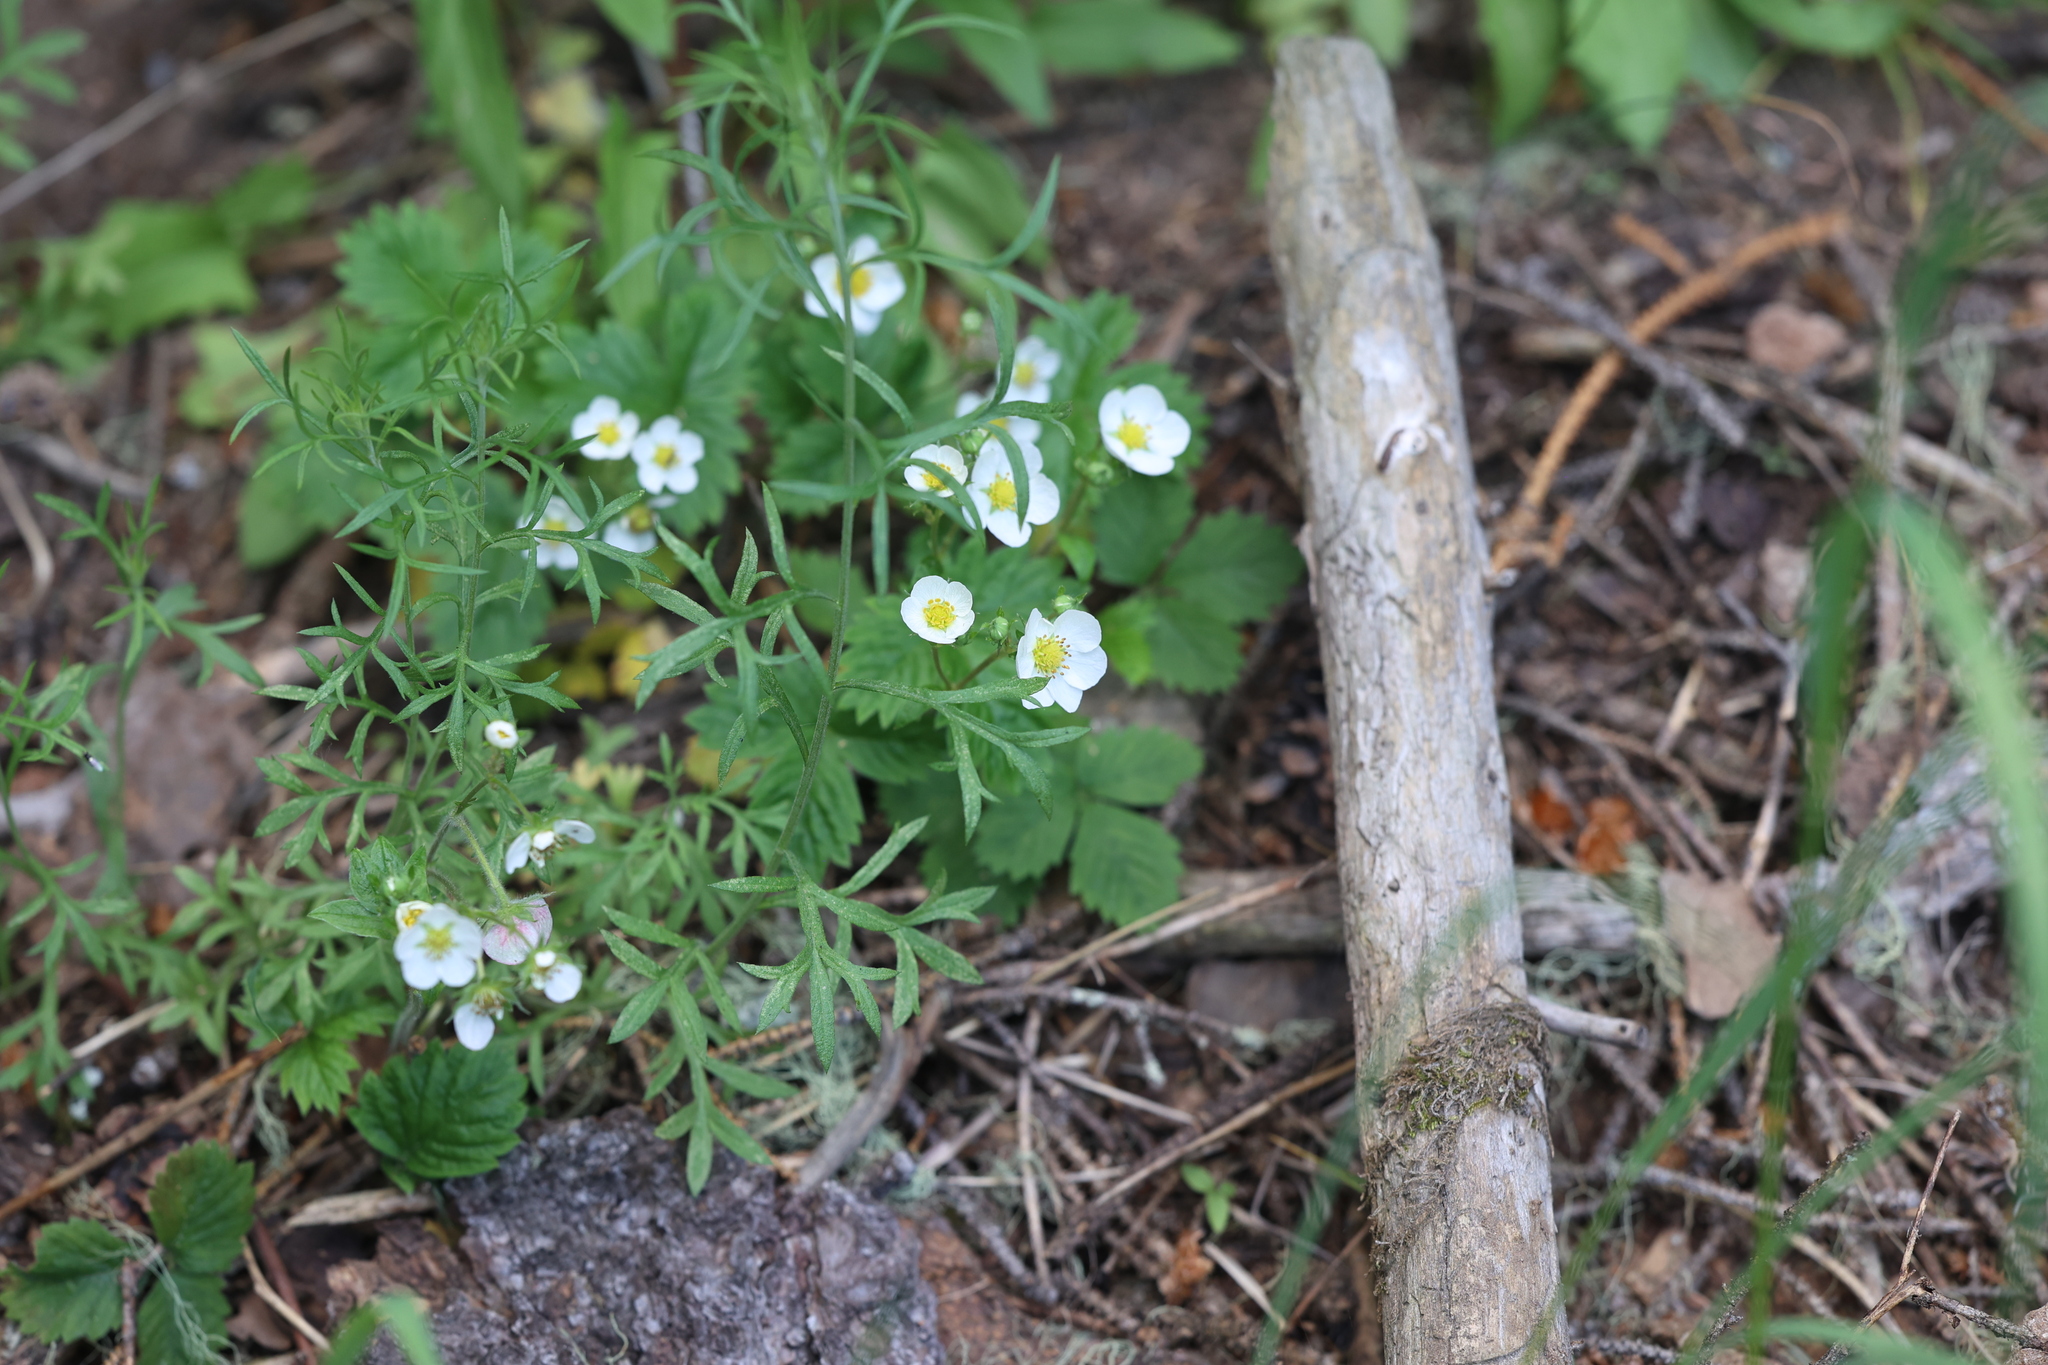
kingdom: Plantae
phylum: Tracheophyta
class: Magnoliopsida
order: Rosales
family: Rosaceae
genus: Fragaria
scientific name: Fragaria vesca
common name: Wild strawberry
